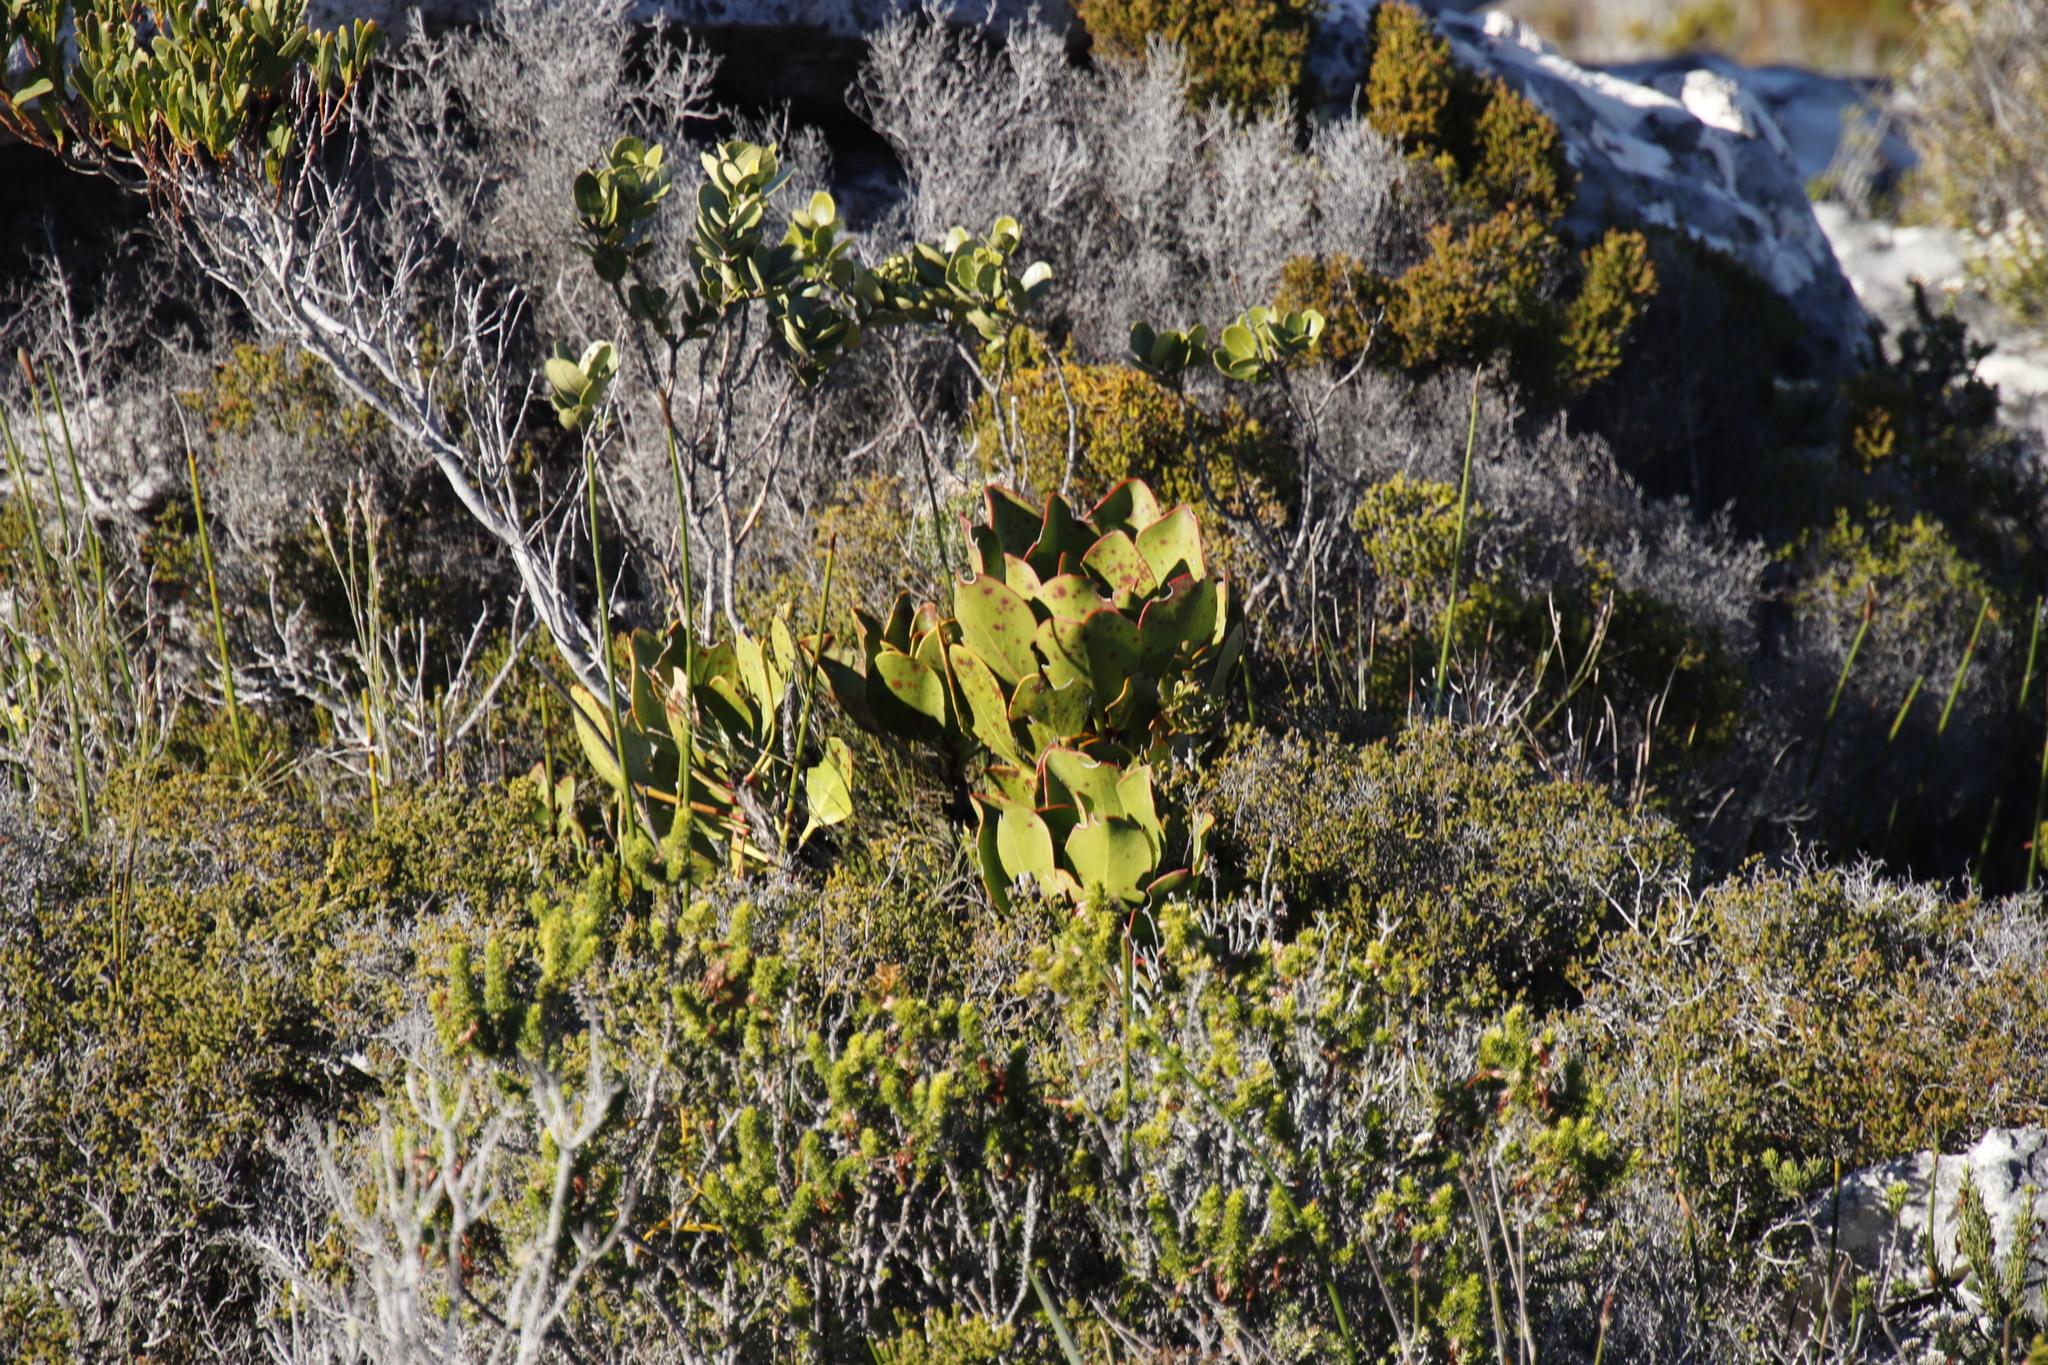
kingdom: Plantae
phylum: Tracheophyta
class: Magnoliopsida
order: Proteales
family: Proteaceae
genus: Protea
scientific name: Protea cynaroides
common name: King protea
